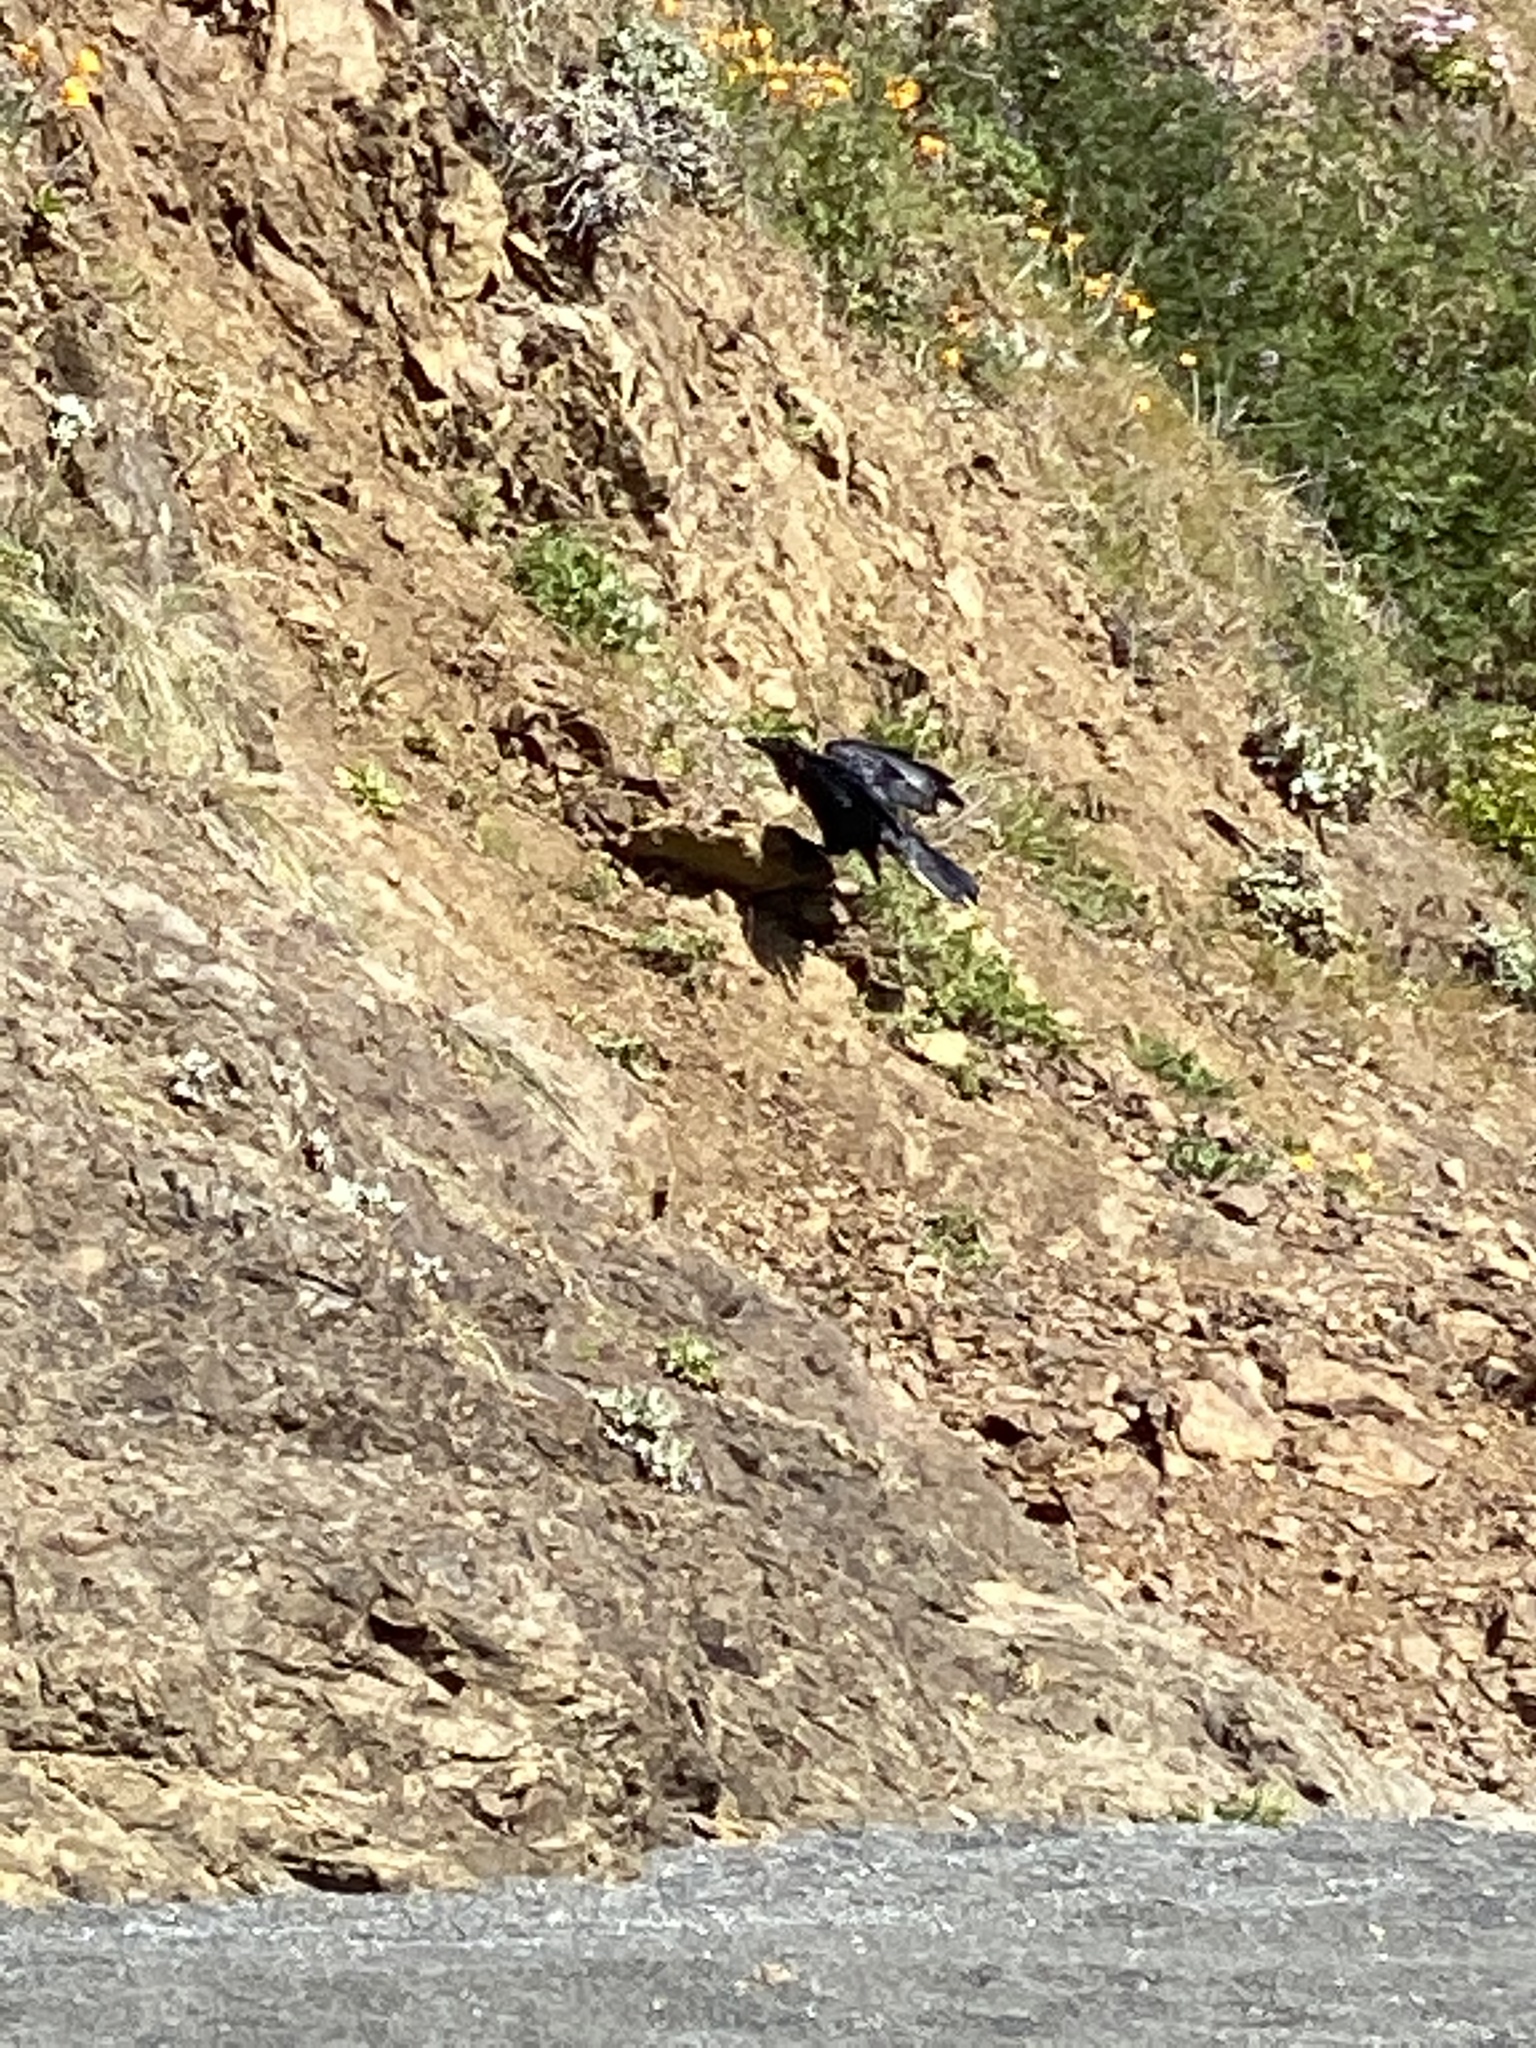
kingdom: Animalia
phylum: Chordata
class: Aves
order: Passeriformes
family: Corvidae
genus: Corvus
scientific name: Corvus corax
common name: Common raven
